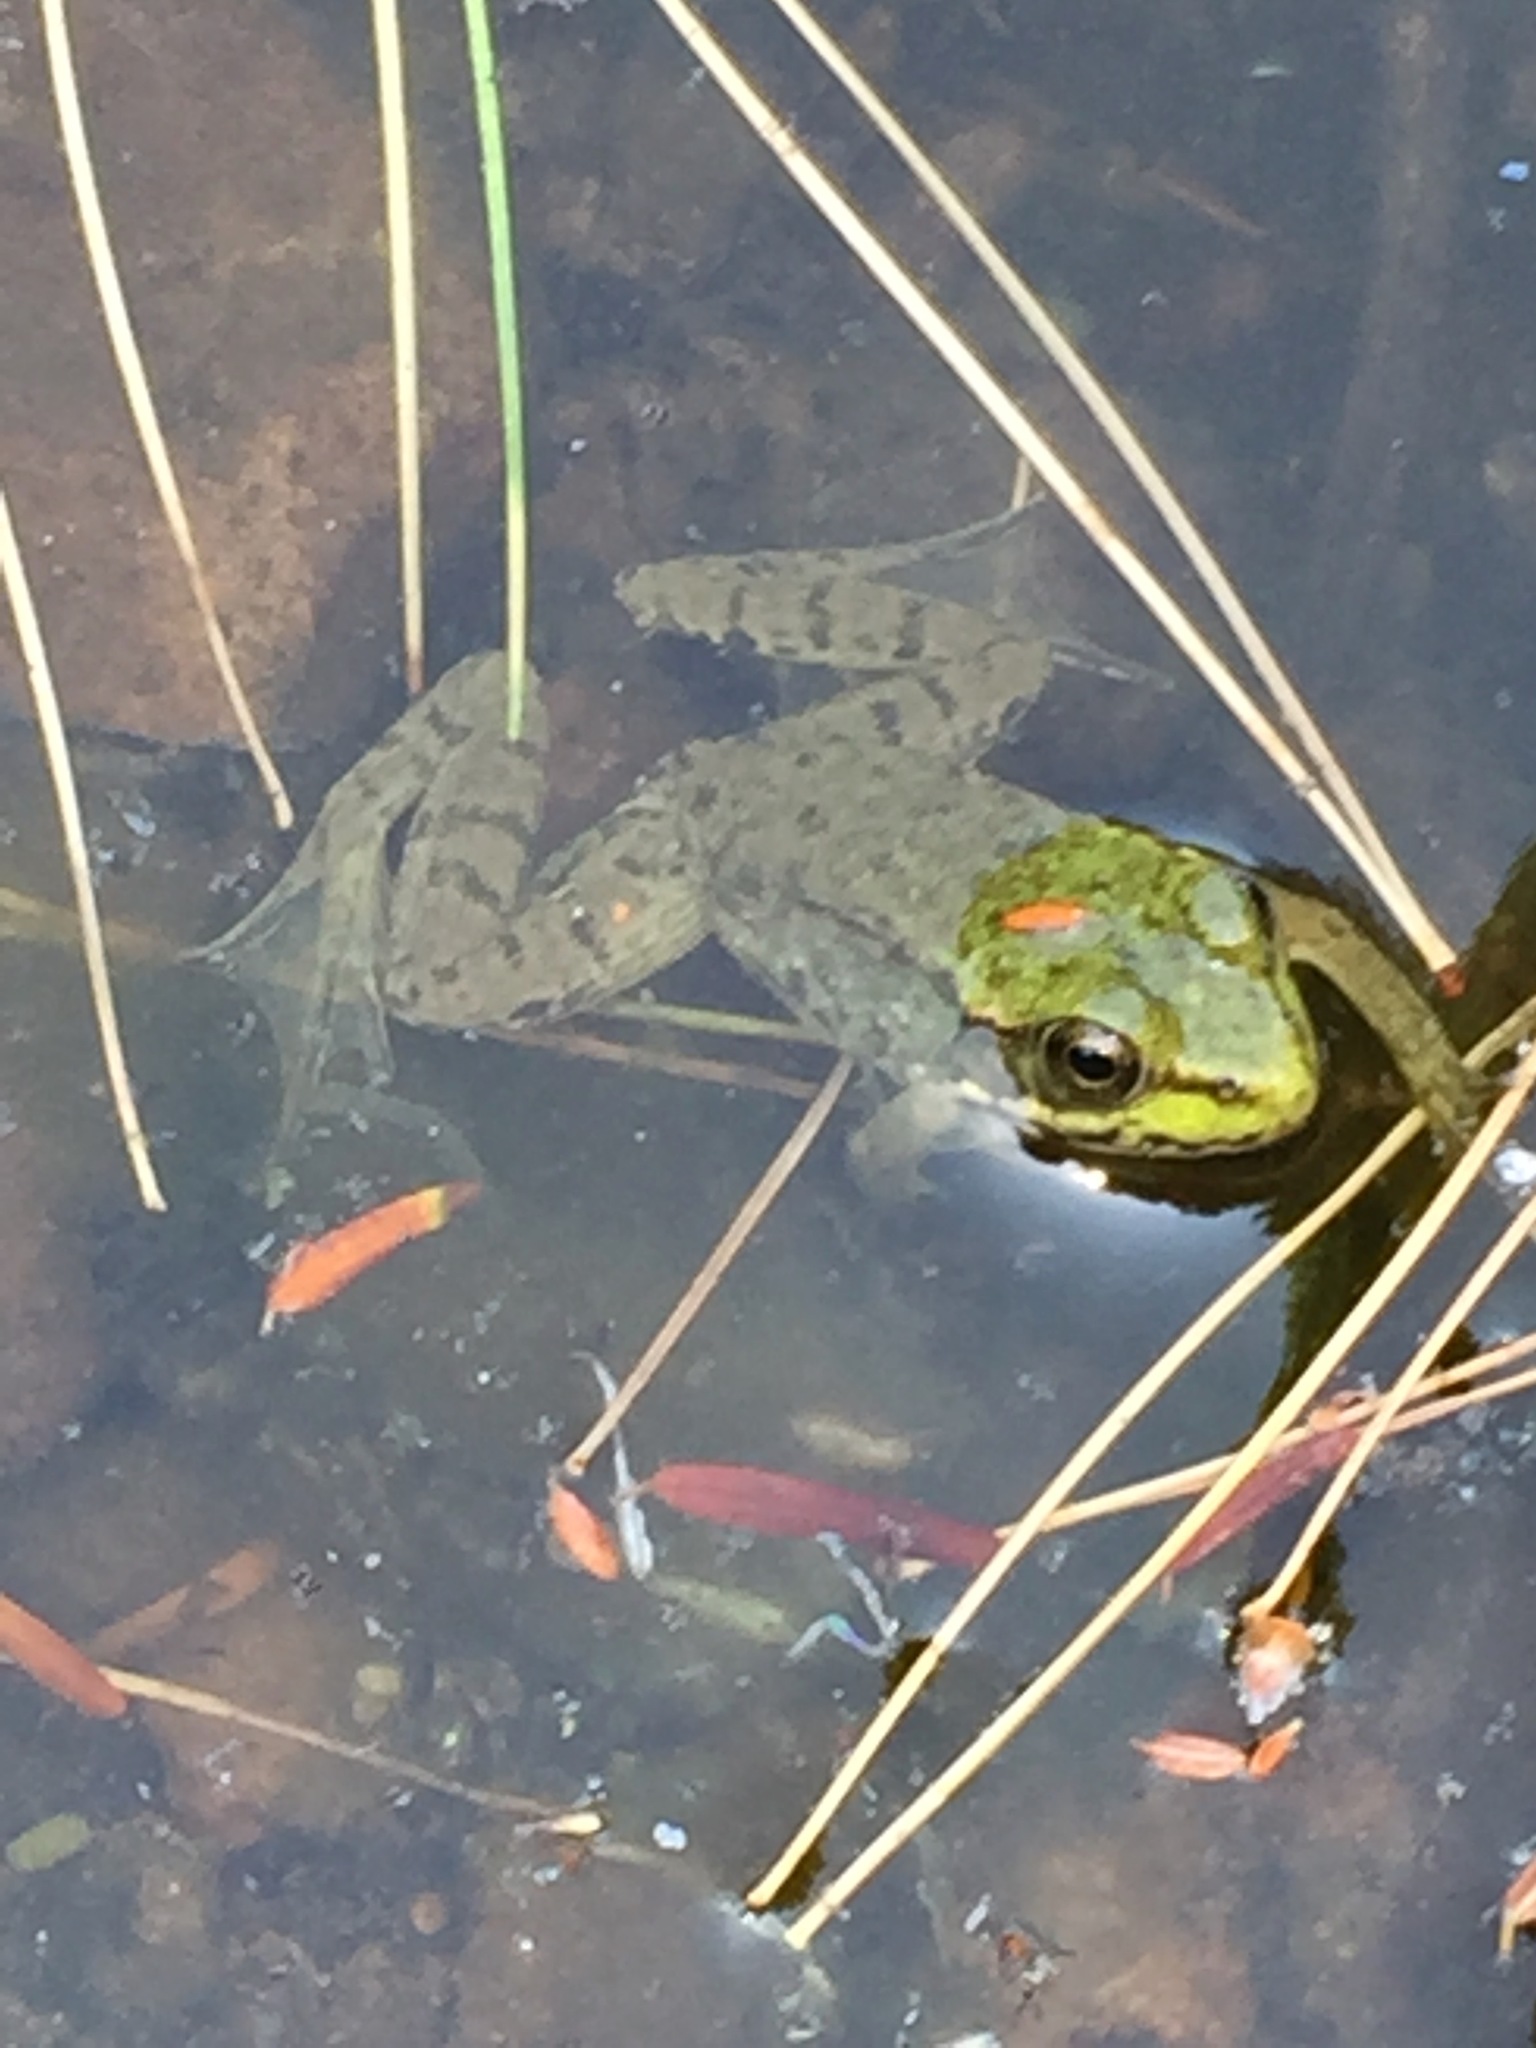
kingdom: Animalia
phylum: Chordata
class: Amphibia
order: Anura
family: Ranidae
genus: Lithobates
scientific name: Lithobates clamitans
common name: Green frog
